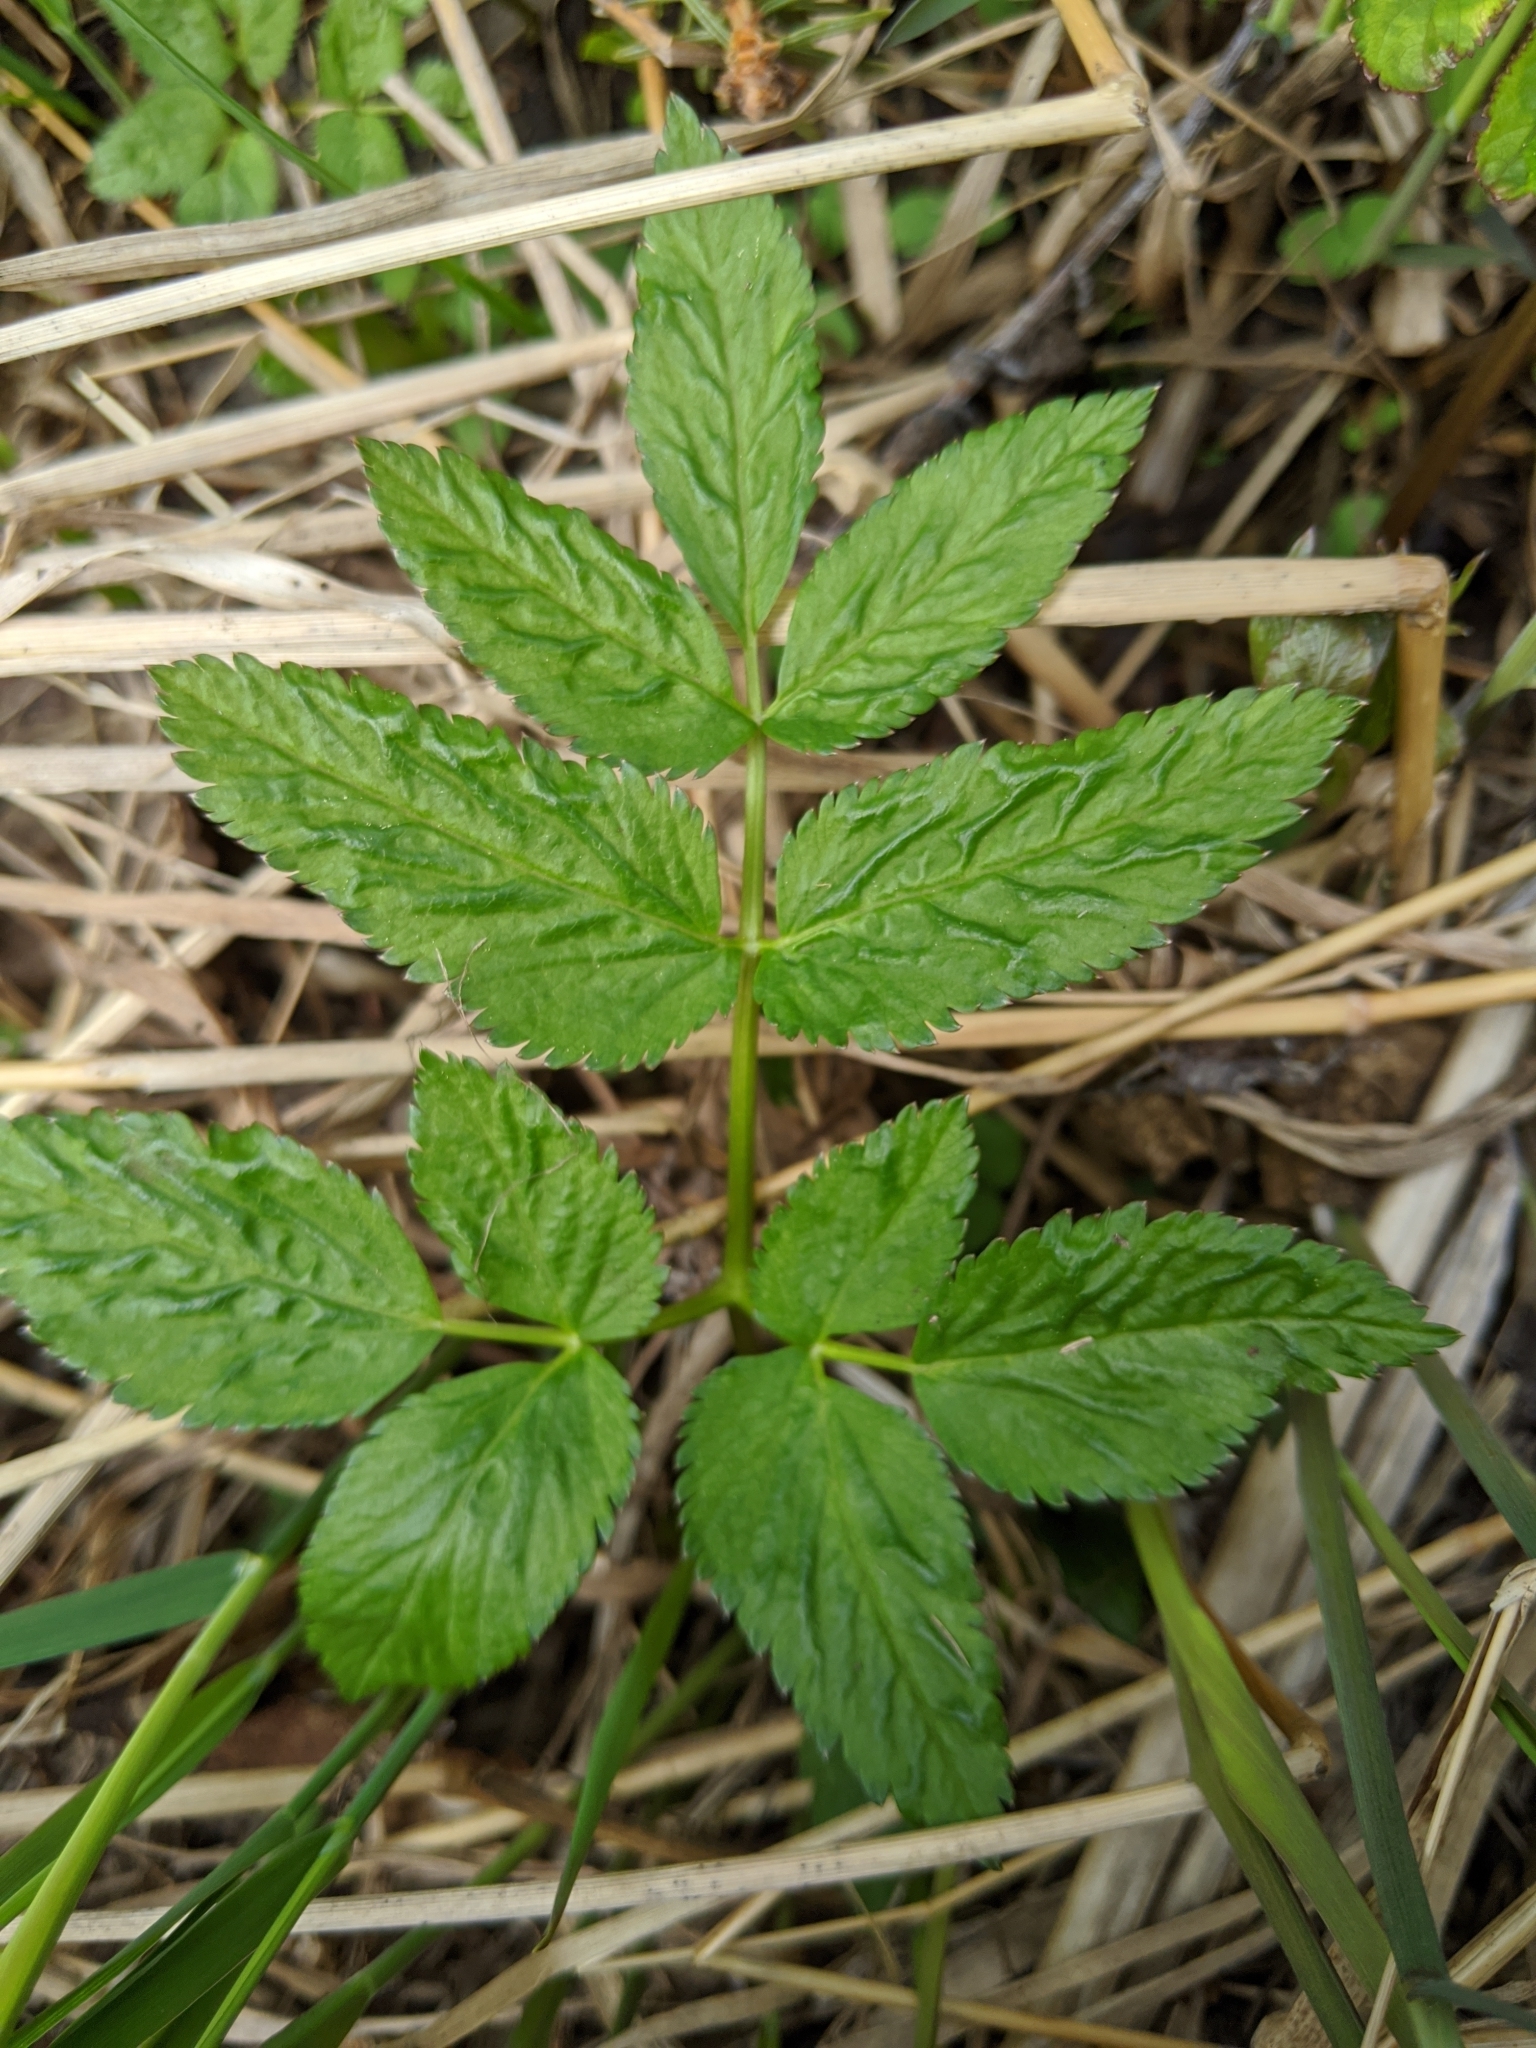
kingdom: Plantae
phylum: Tracheophyta
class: Magnoliopsida
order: Apiales
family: Apiaceae
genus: Angelica
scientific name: Angelica genuflexa
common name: Kneeling angelica
